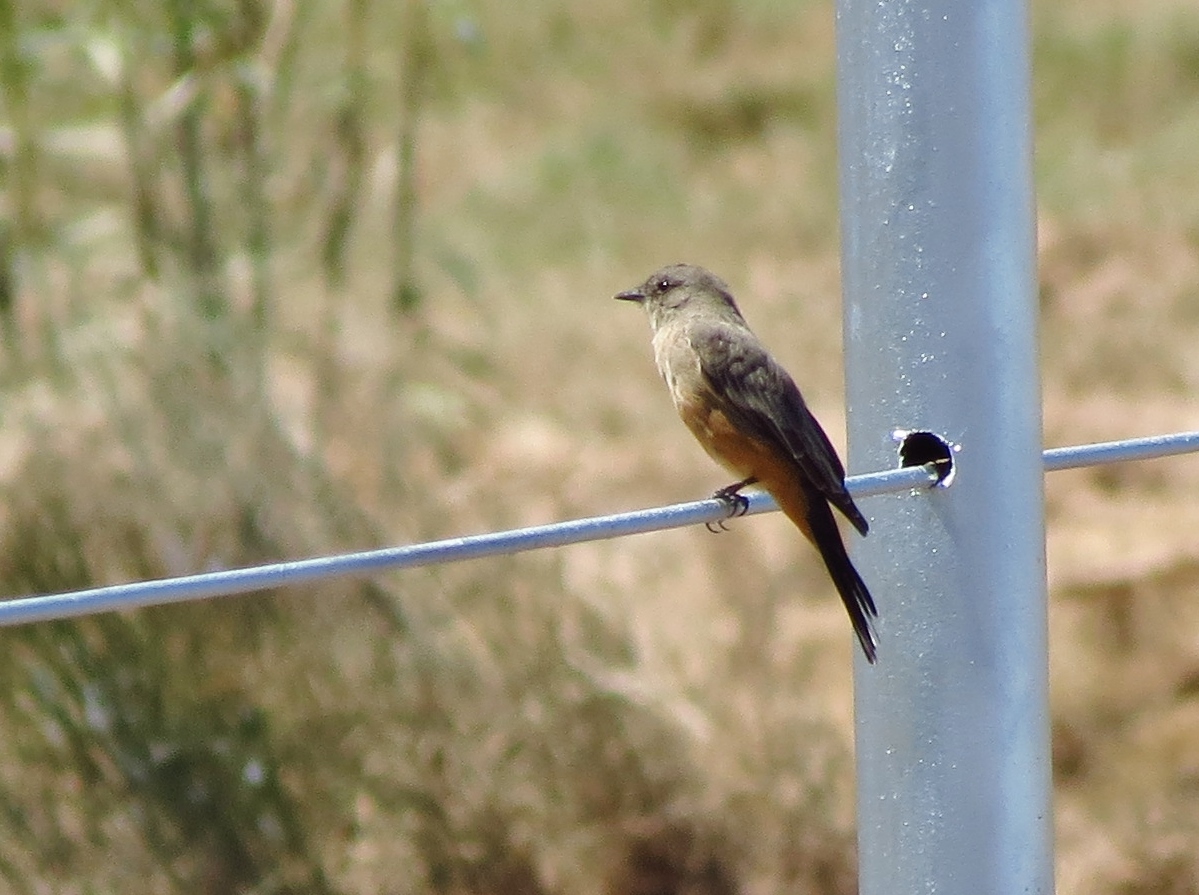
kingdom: Animalia
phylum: Chordata
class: Aves
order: Passeriformes
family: Tyrannidae
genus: Sayornis
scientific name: Sayornis saya
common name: Say's phoebe
